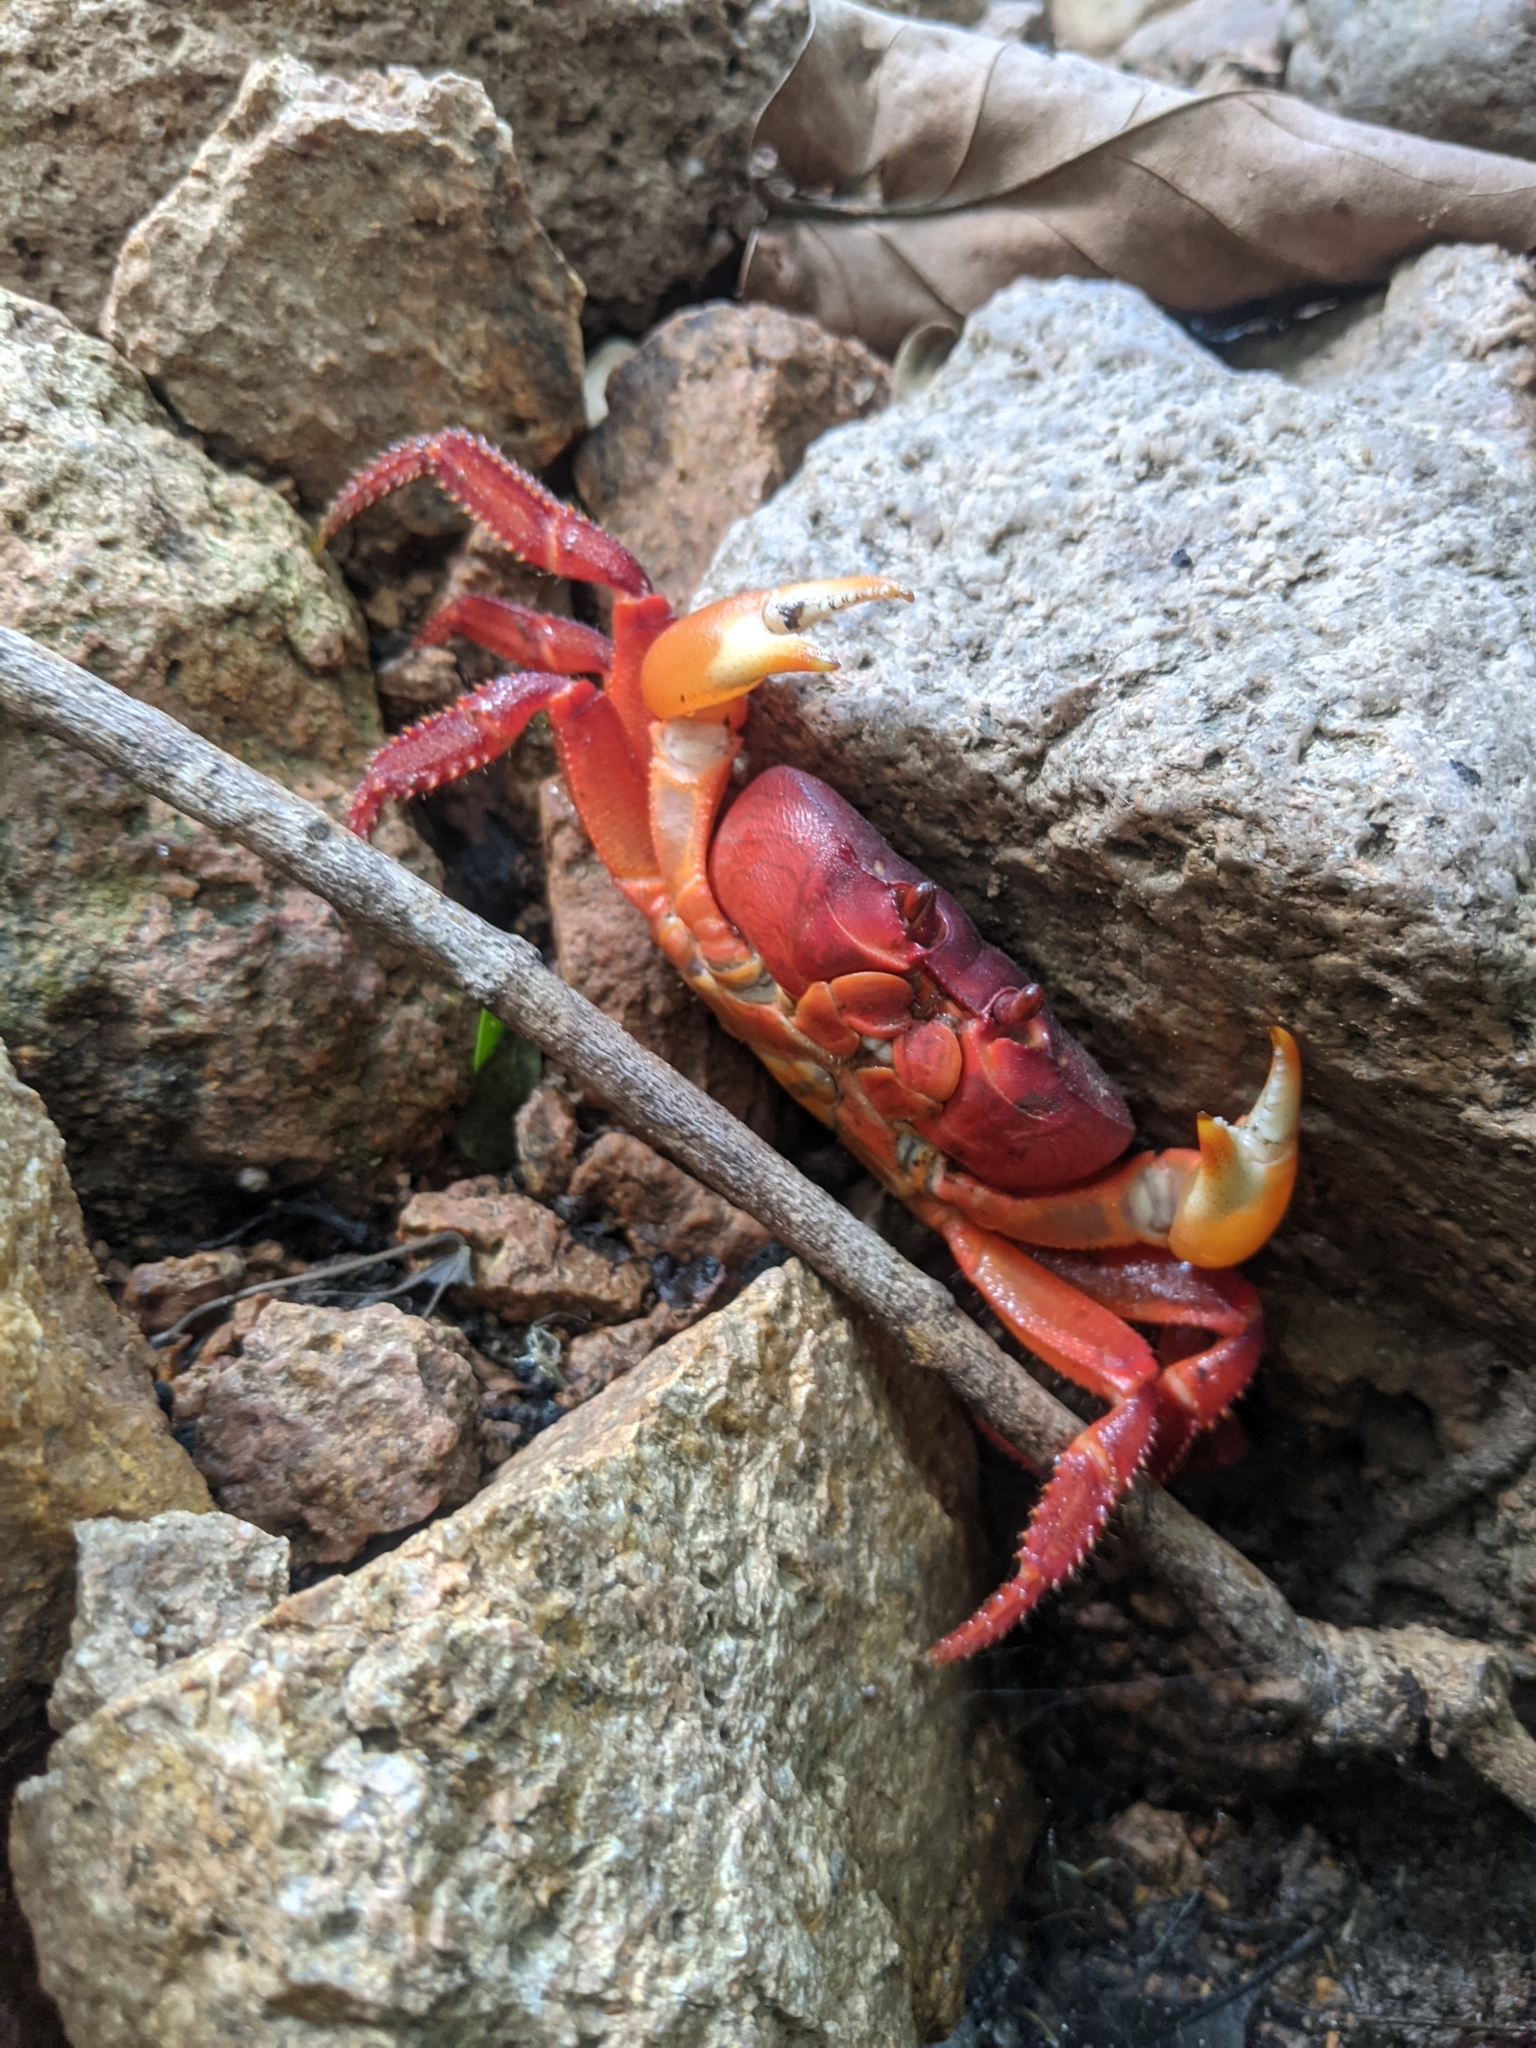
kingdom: Animalia
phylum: Arthropoda
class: Malacostraca
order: Decapoda
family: Gecarcinidae
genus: Johngarthia
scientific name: Johngarthia planata
